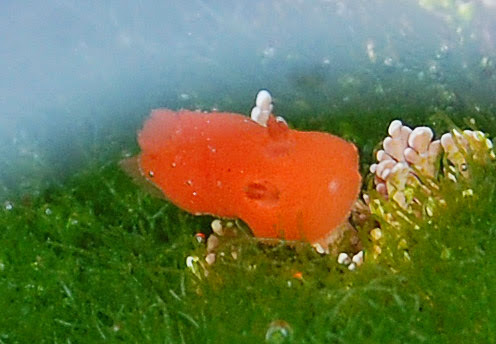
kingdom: Animalia
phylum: Mollusca
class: Gastropoda
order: Nudibranchia
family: Discodorididae
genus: Rostanga
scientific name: Rostanga pulchra
